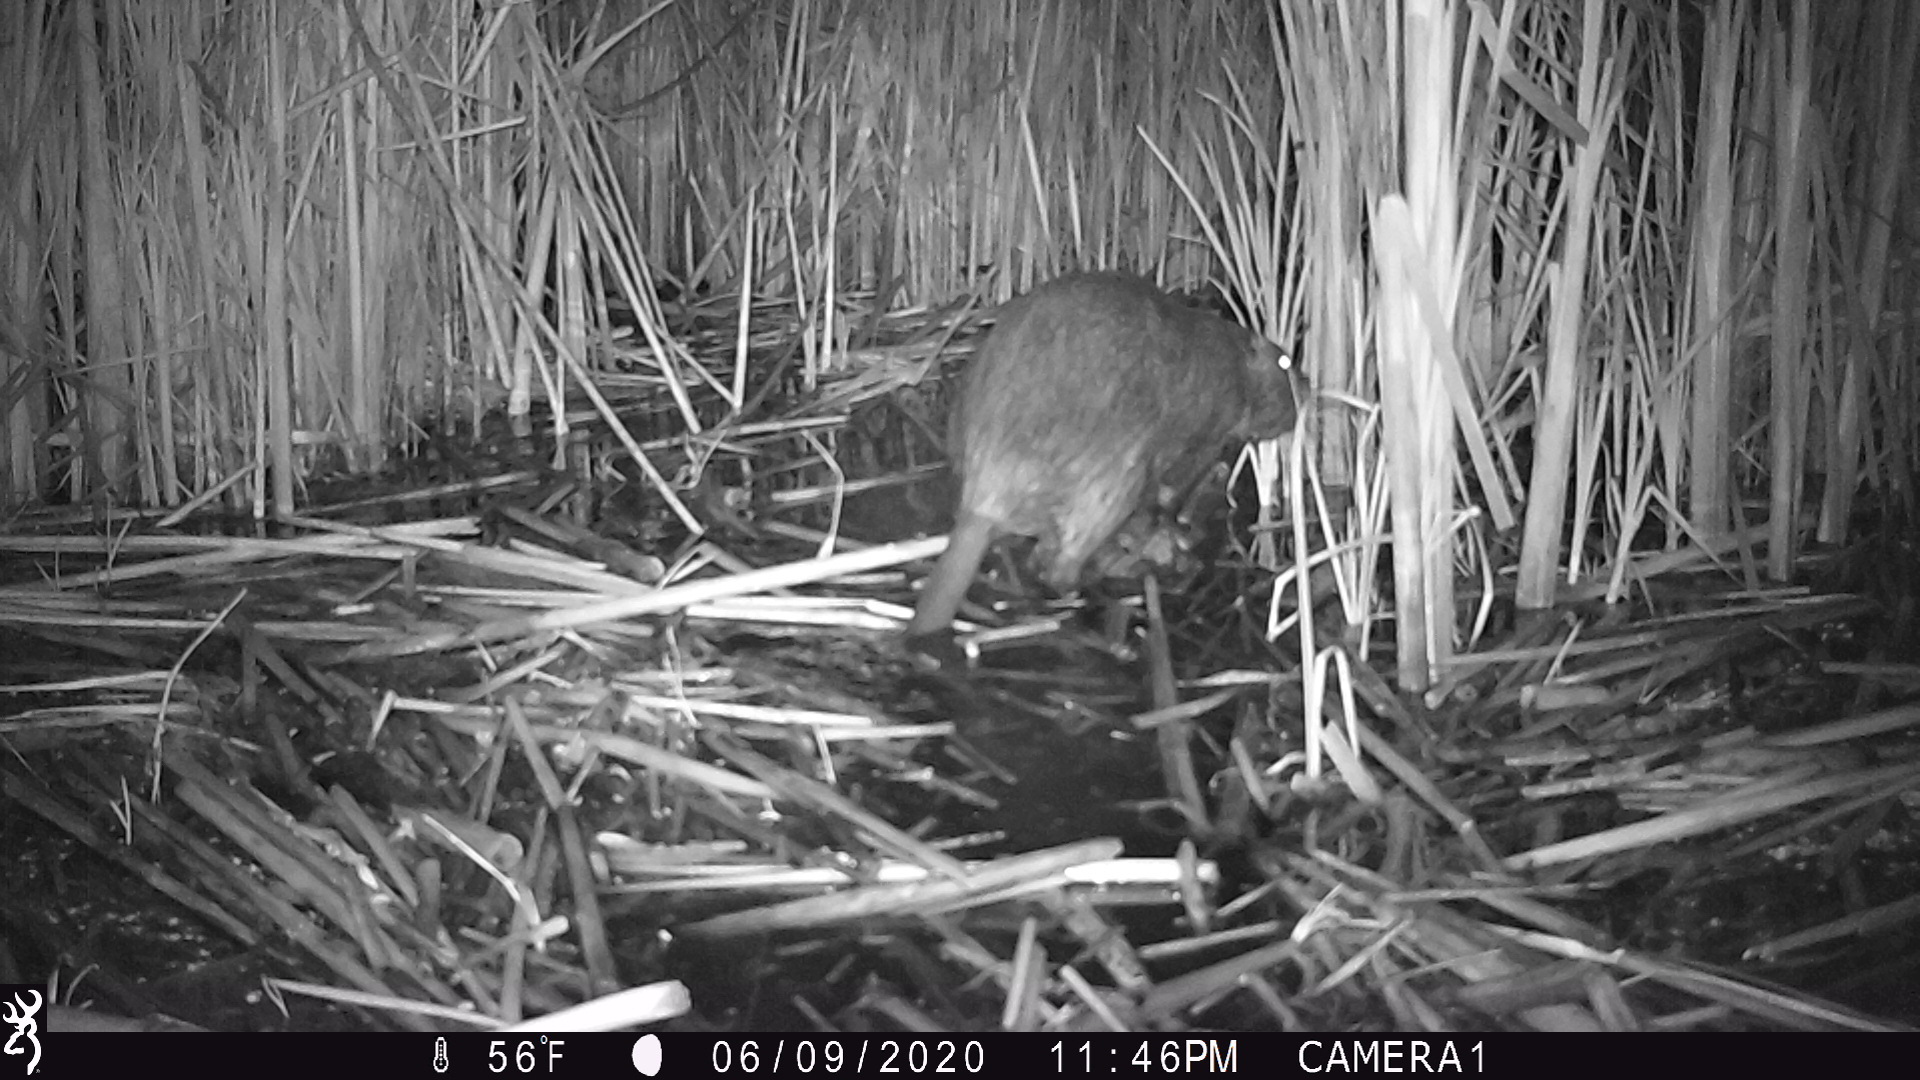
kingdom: Animalia
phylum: Chordata
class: Mammalia
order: Rodentia
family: Myocastoridae
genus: Myocastor
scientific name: Myocastor coypus
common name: Coypu
